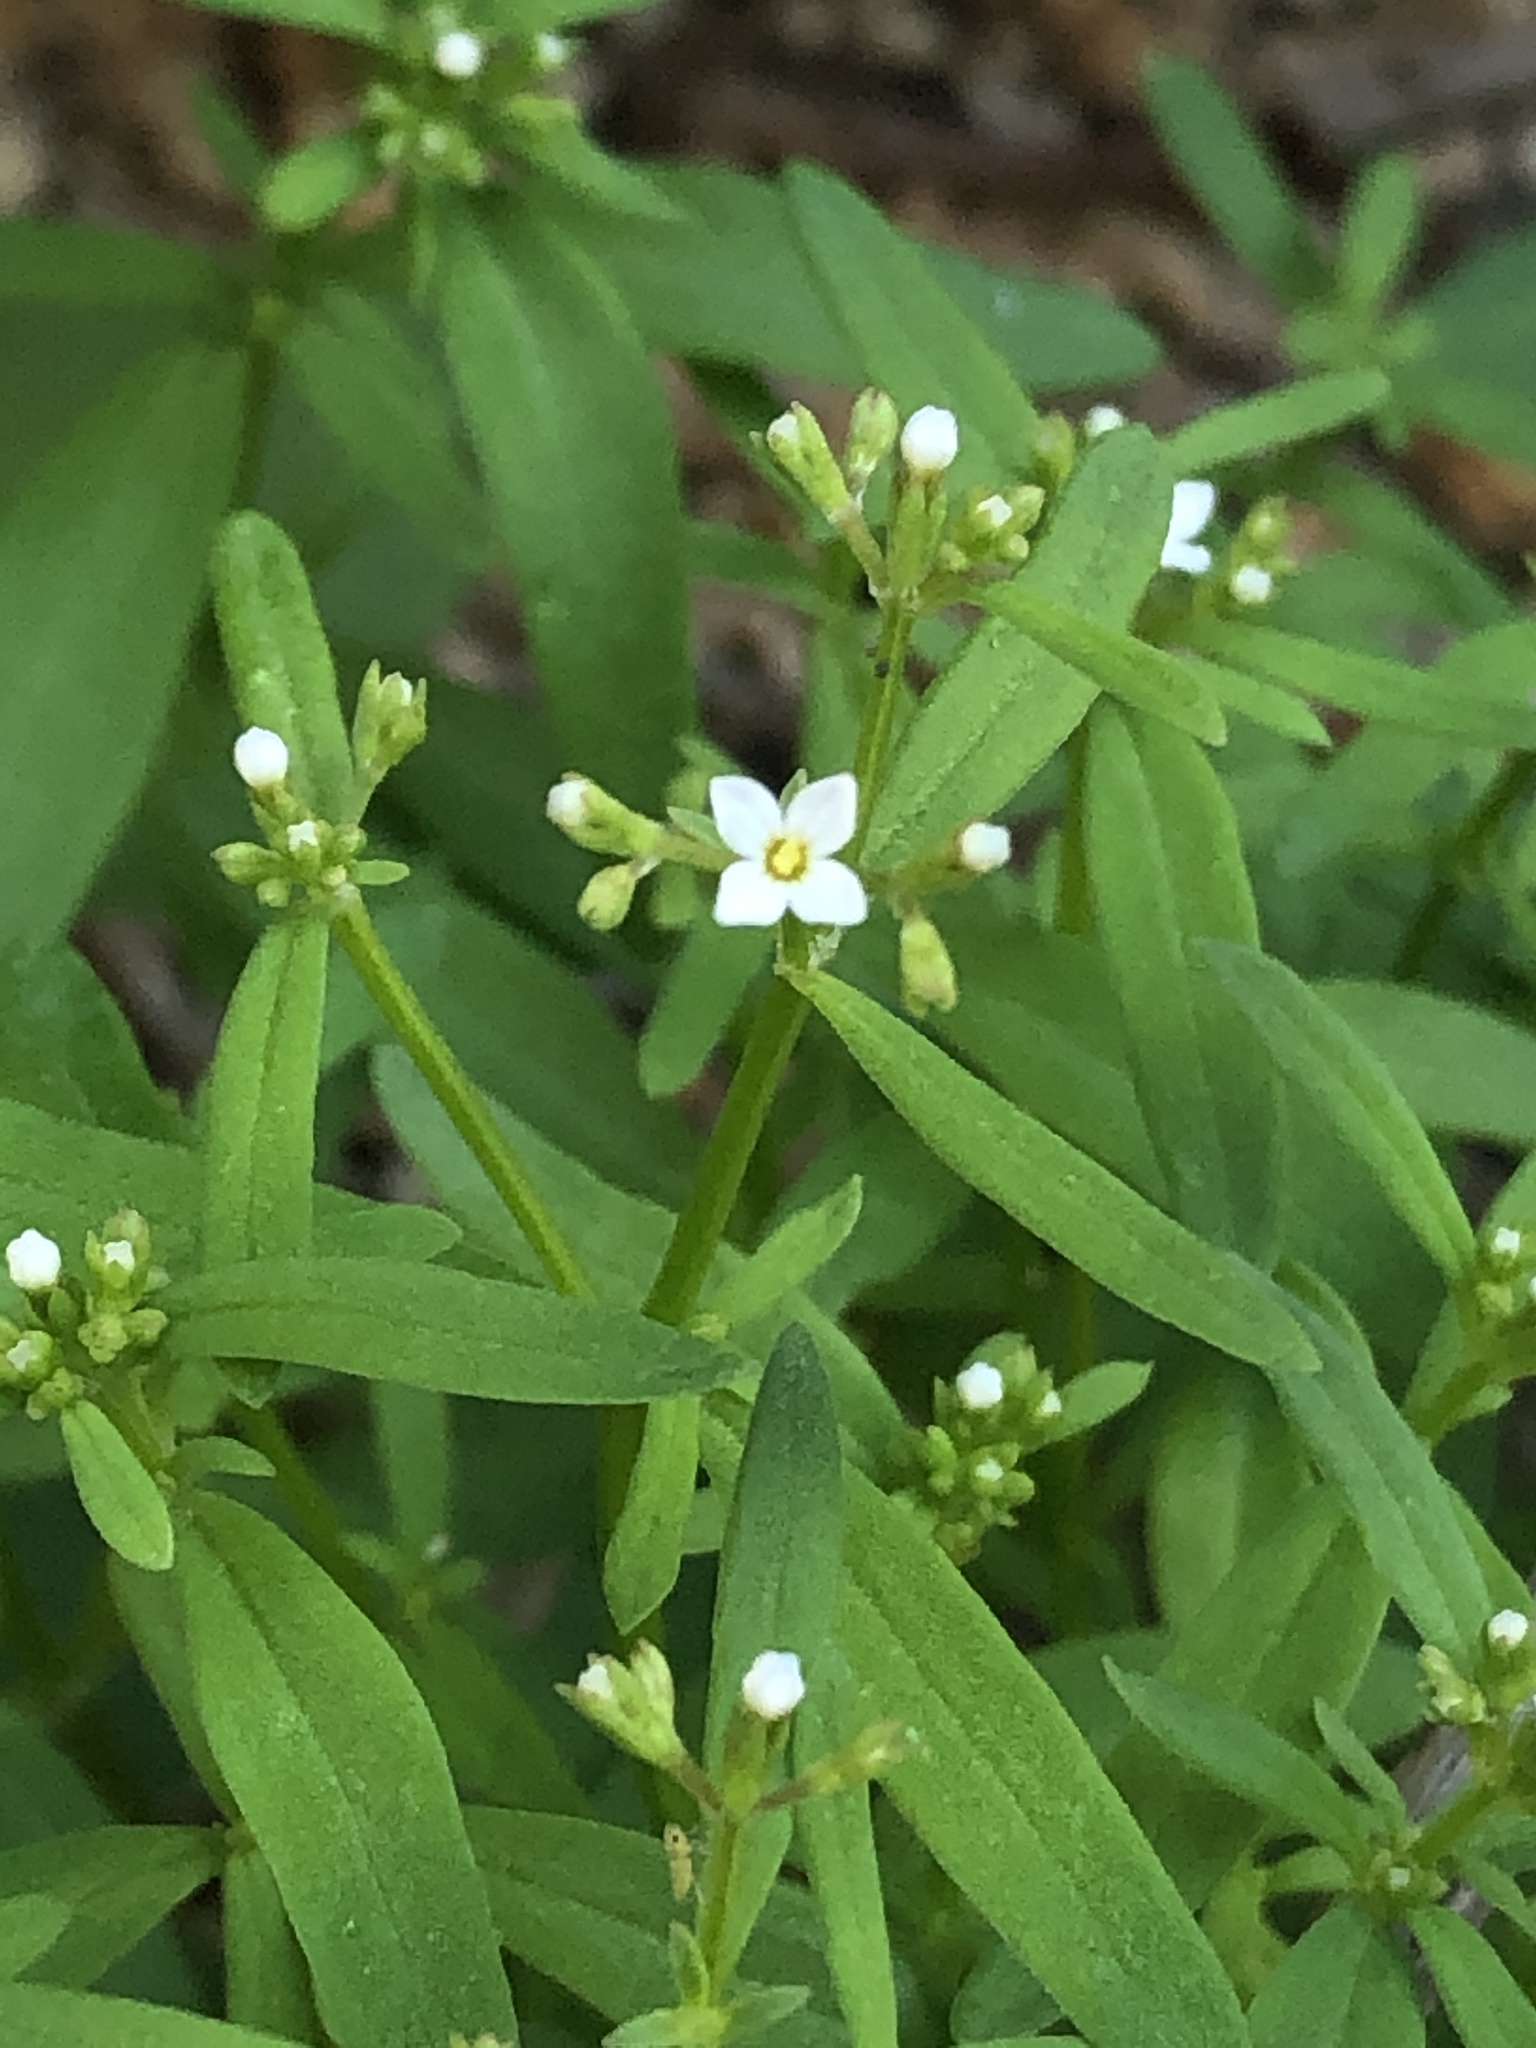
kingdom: Plantae
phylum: Tracheophyta
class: Magnoliopsida
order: Gentianales
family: Rubiaceae
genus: Stenotis
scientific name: Stenotis greenei
